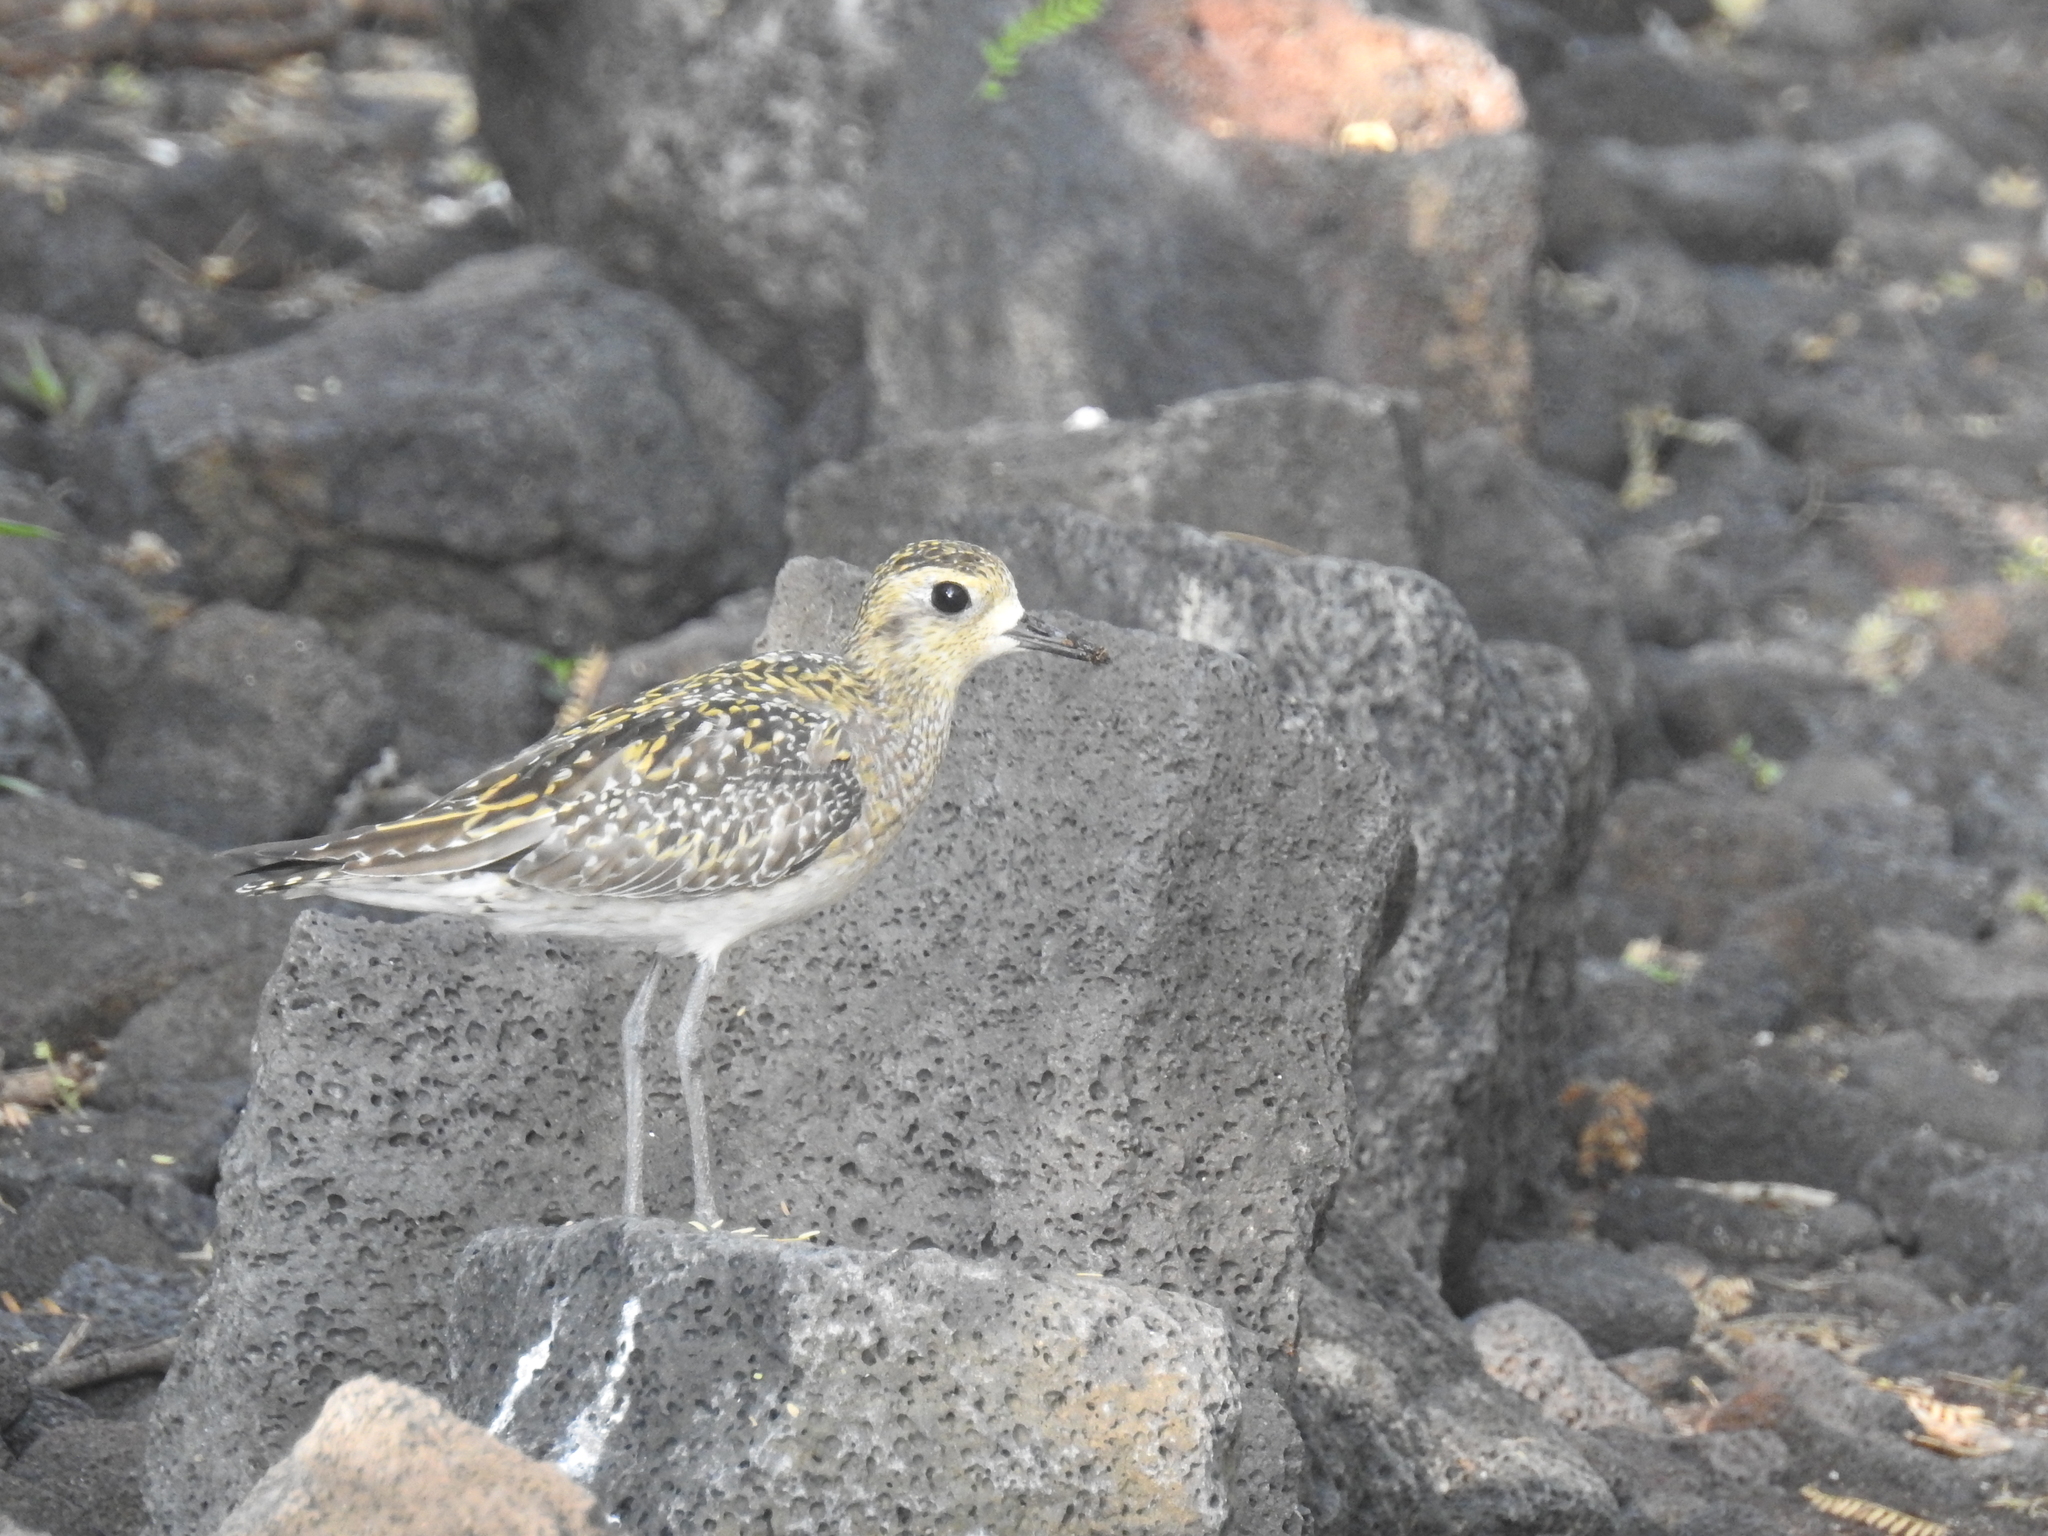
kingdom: Animalia
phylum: Chordata
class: Aves
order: Charadriiformes
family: Charadriidae
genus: Pluvialis
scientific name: Pluvialis fulva
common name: Pacific golden plover
